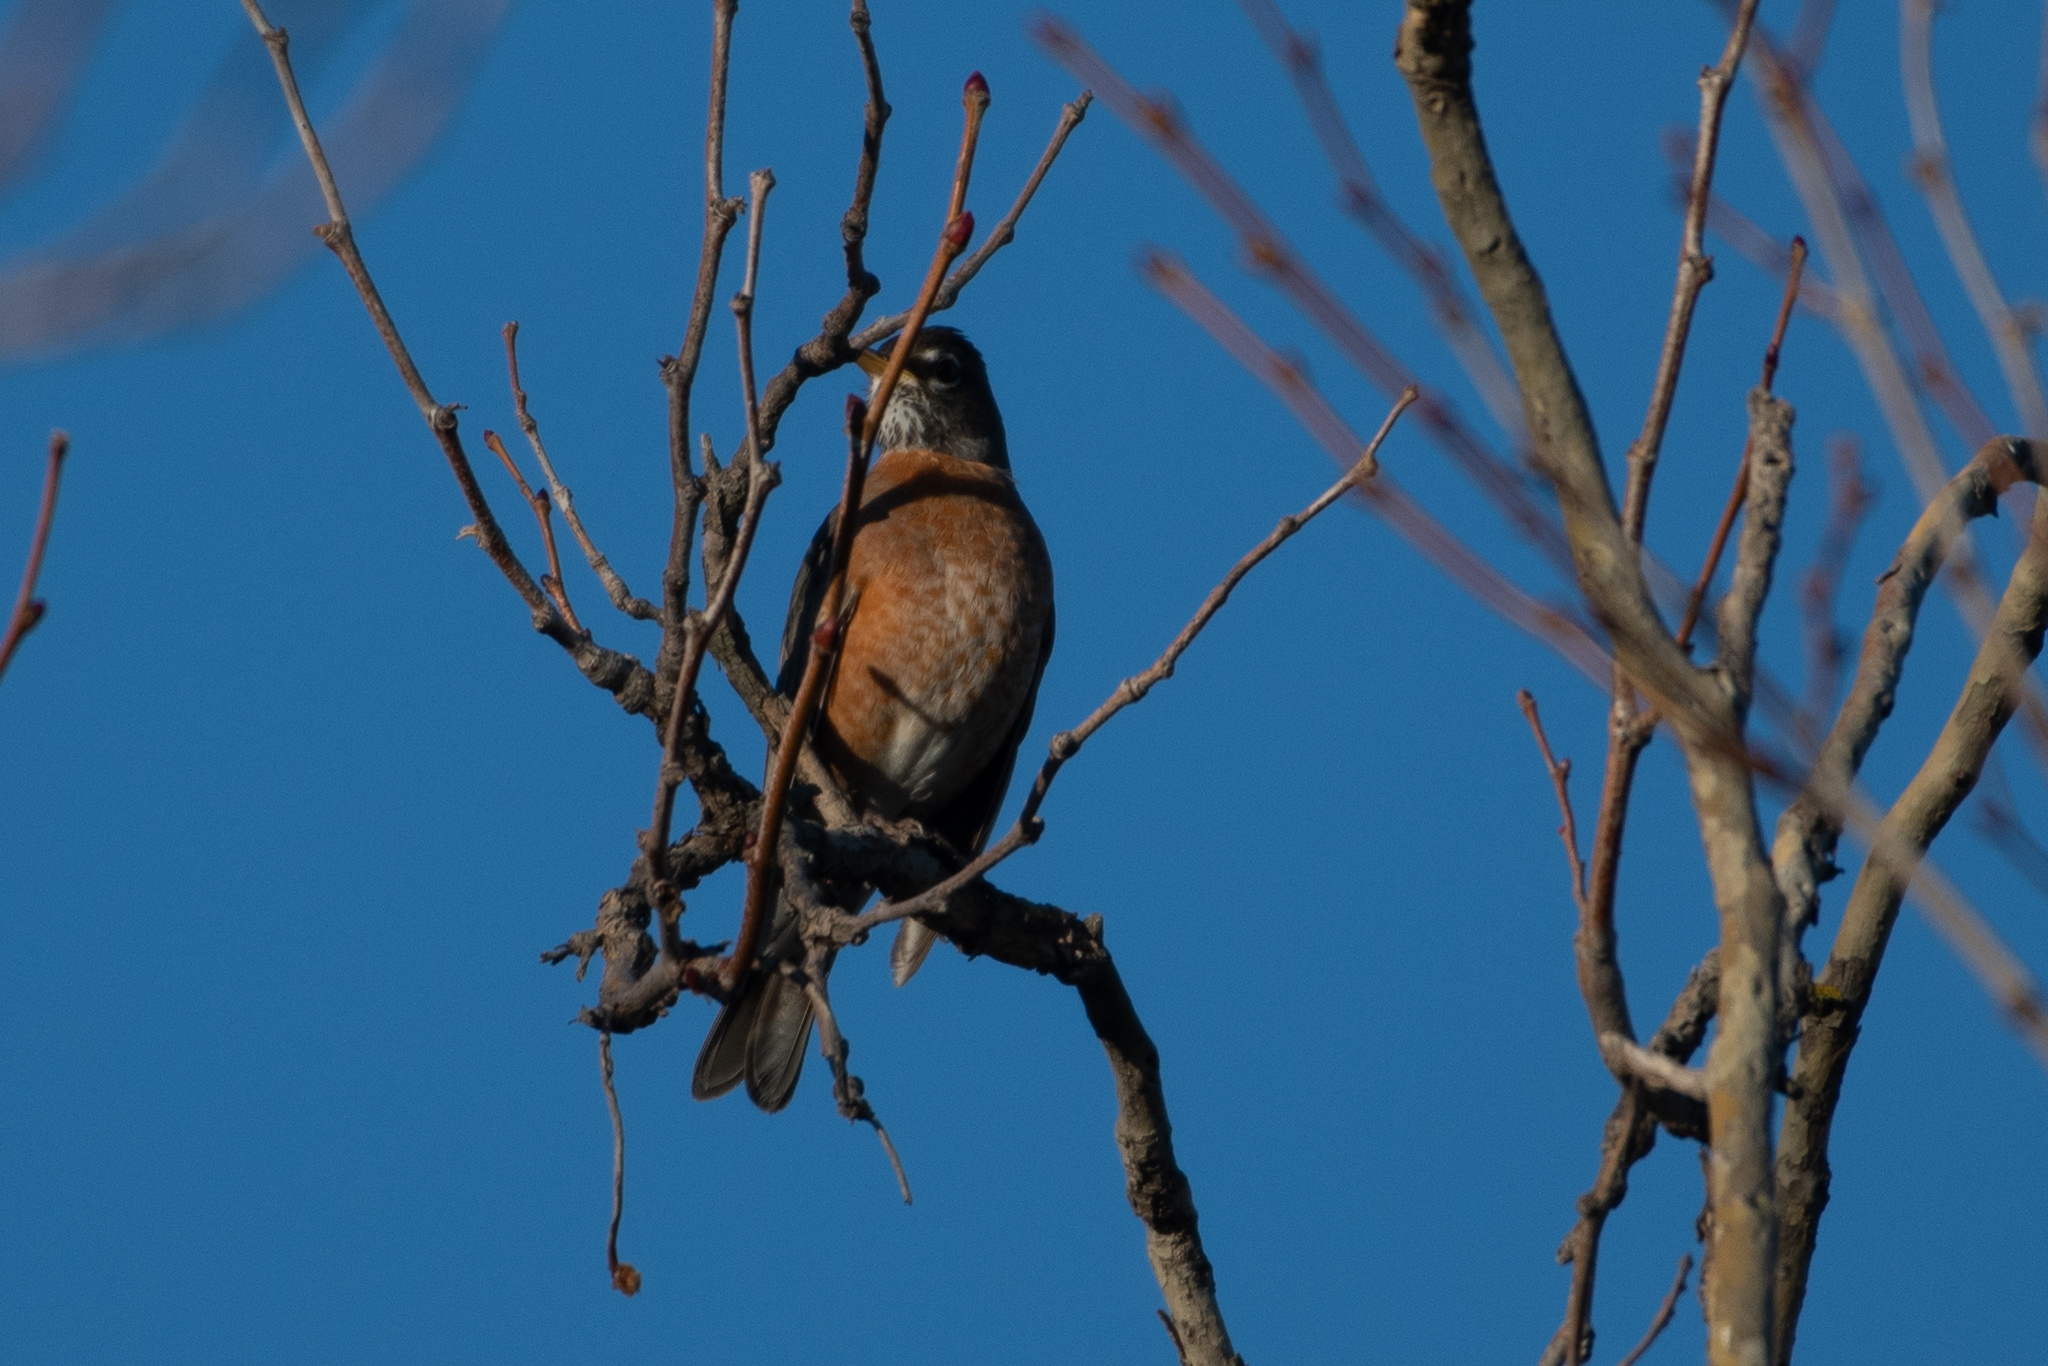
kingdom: Animalia
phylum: Chordata
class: Aves
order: Passeriformes
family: Turdidae
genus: Turdus
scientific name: Turdus migratorius
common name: American robin
